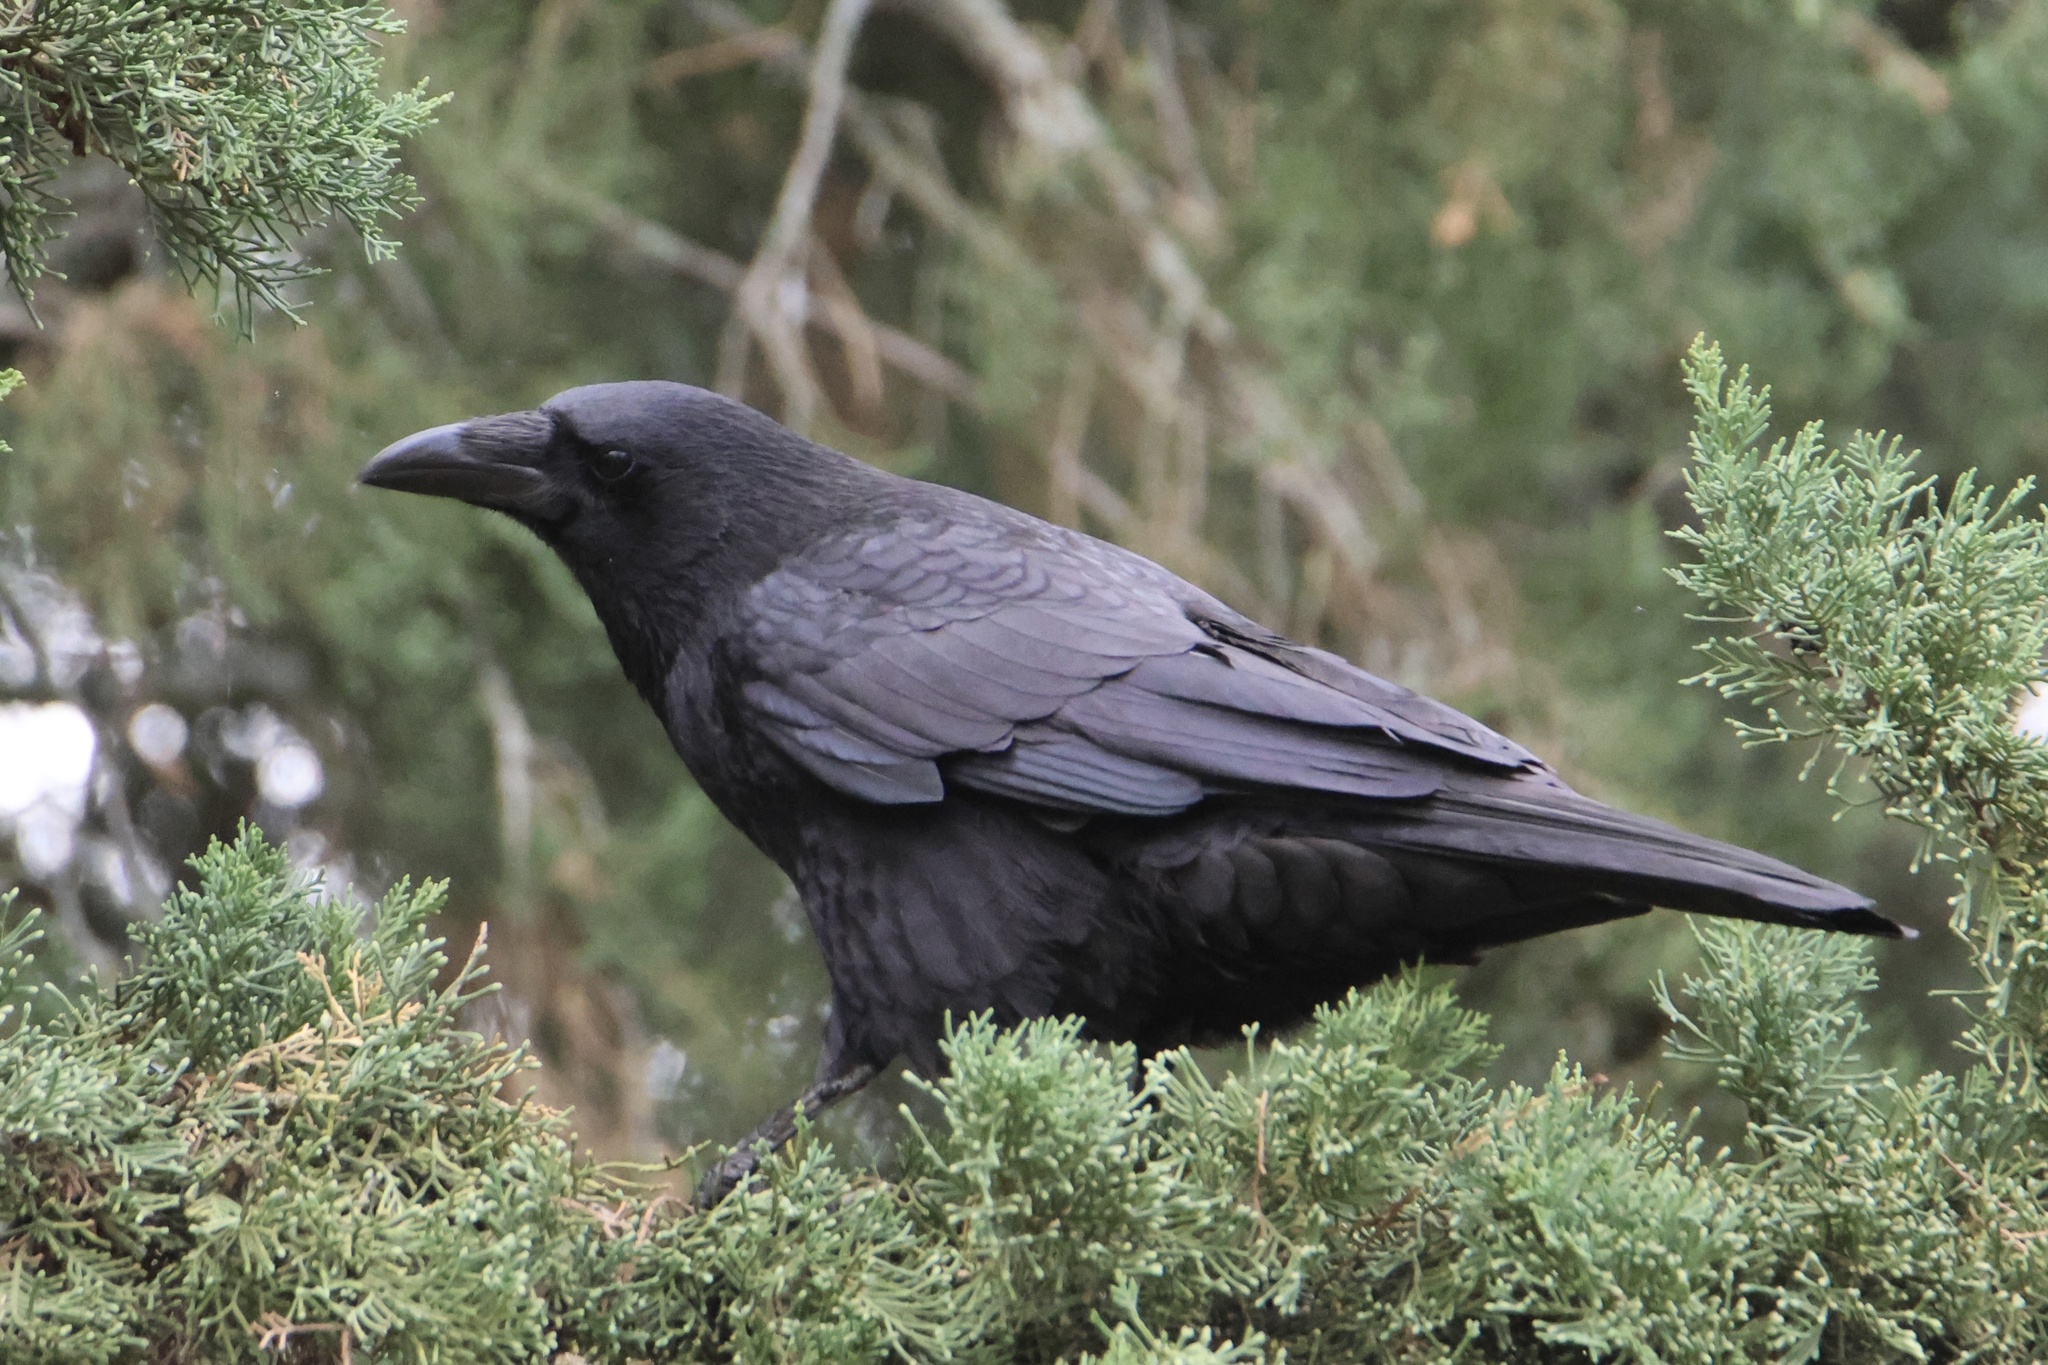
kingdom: Animalia
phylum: Chordata
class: Aves
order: Passeriformes
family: Corvidae
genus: Corvus
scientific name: Corvus corone
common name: Carrion crow
